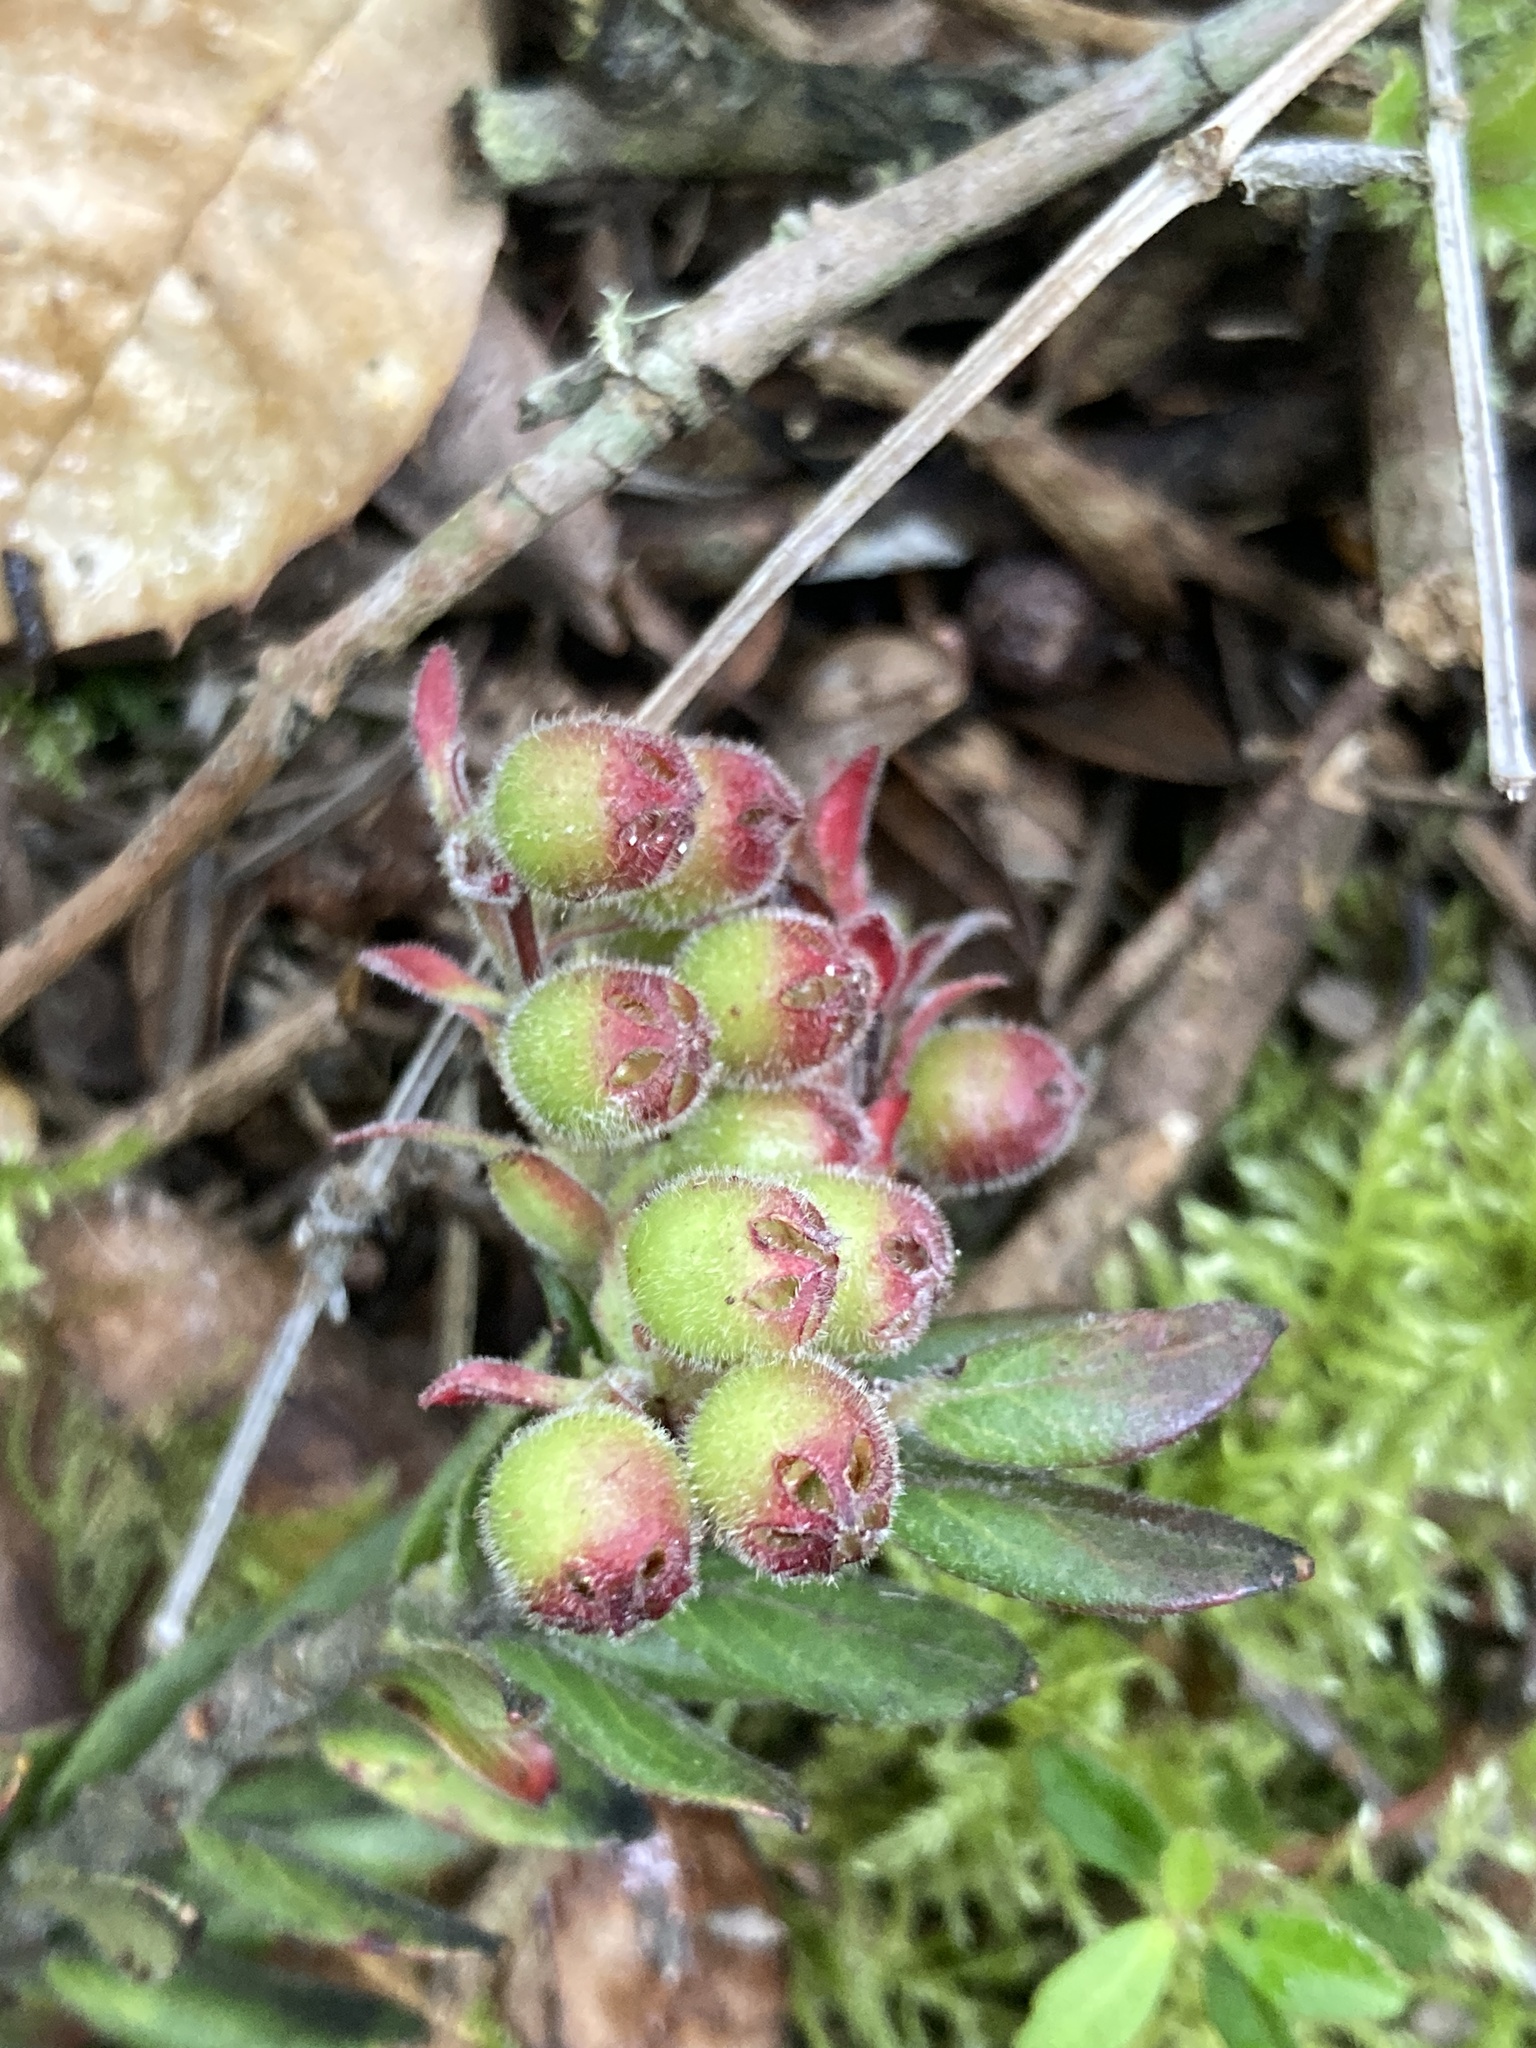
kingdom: Plantae
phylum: Tracheophyta
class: Magnoliopsida
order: Ericales
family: Ericaceae
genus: Gaylussacia
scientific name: Gaylussacia buxifolia
